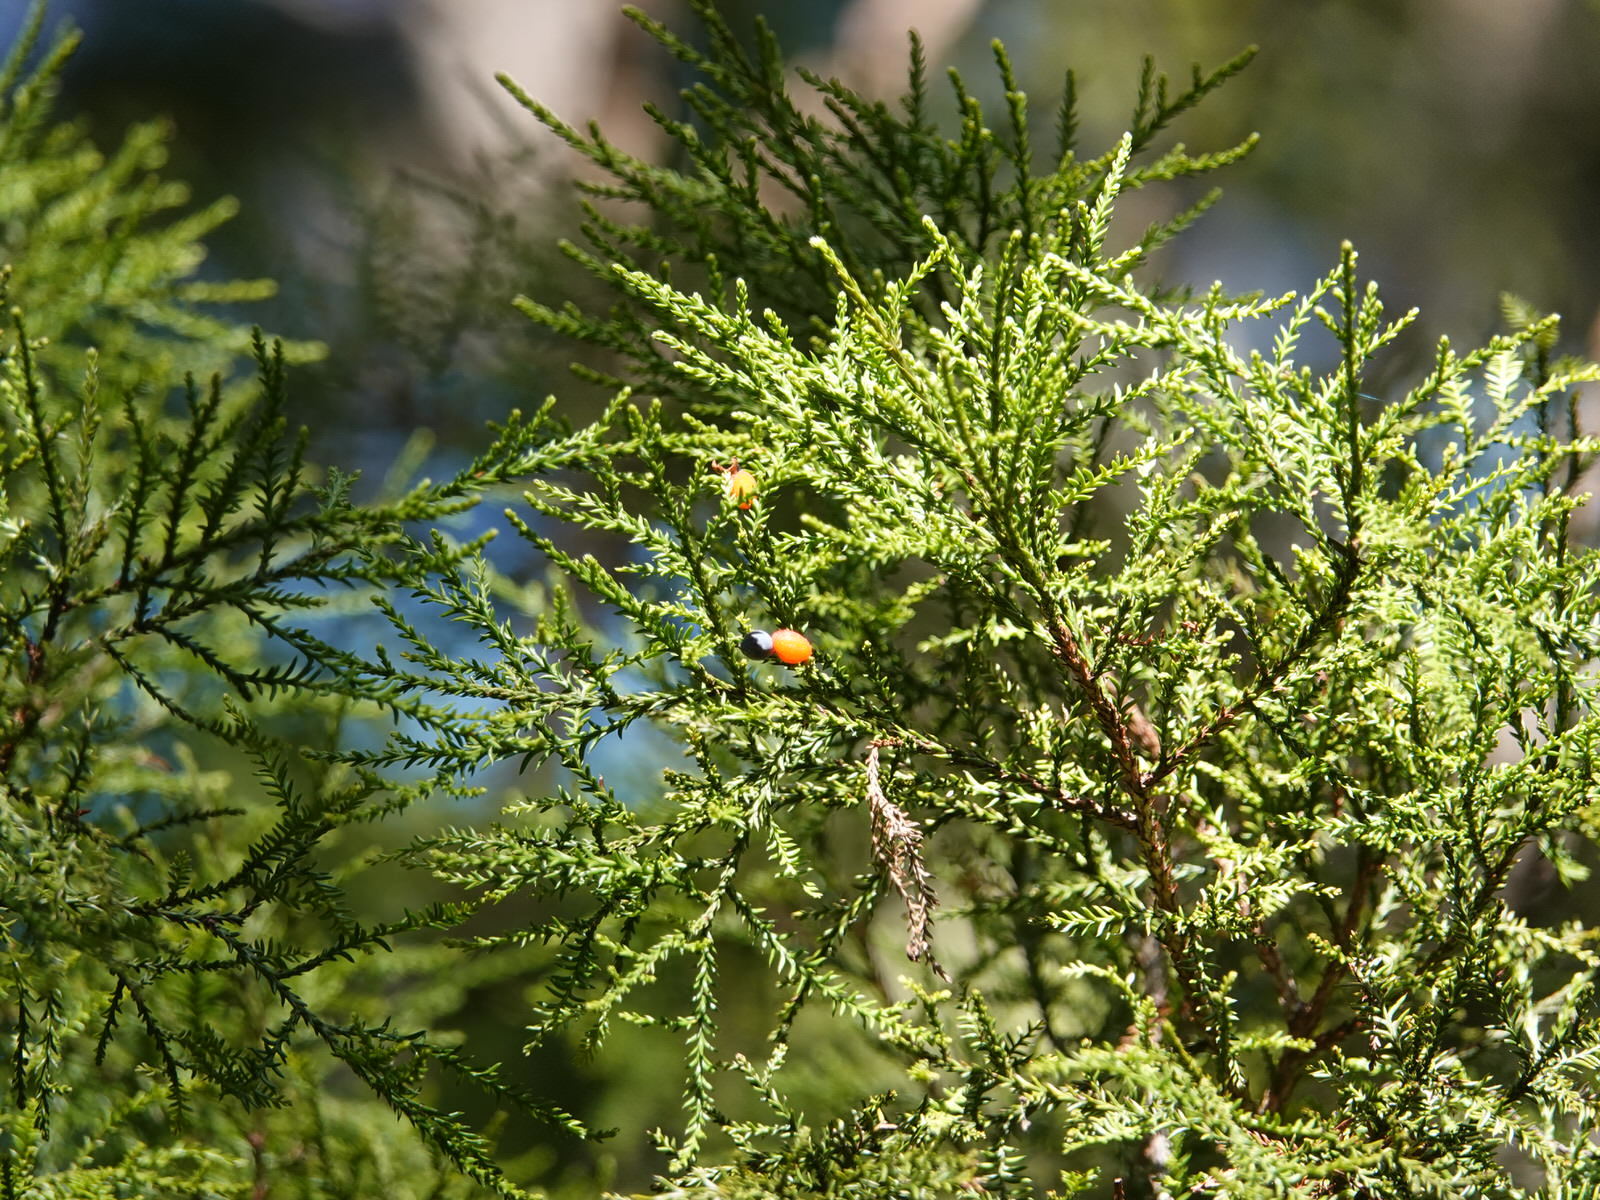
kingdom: Plantae
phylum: Tracheophyta
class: Pinopsida
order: Pinales
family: Podocarpaceae
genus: Dacrycarpus
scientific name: Dacrycarpus dacrydioides
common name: White pine
